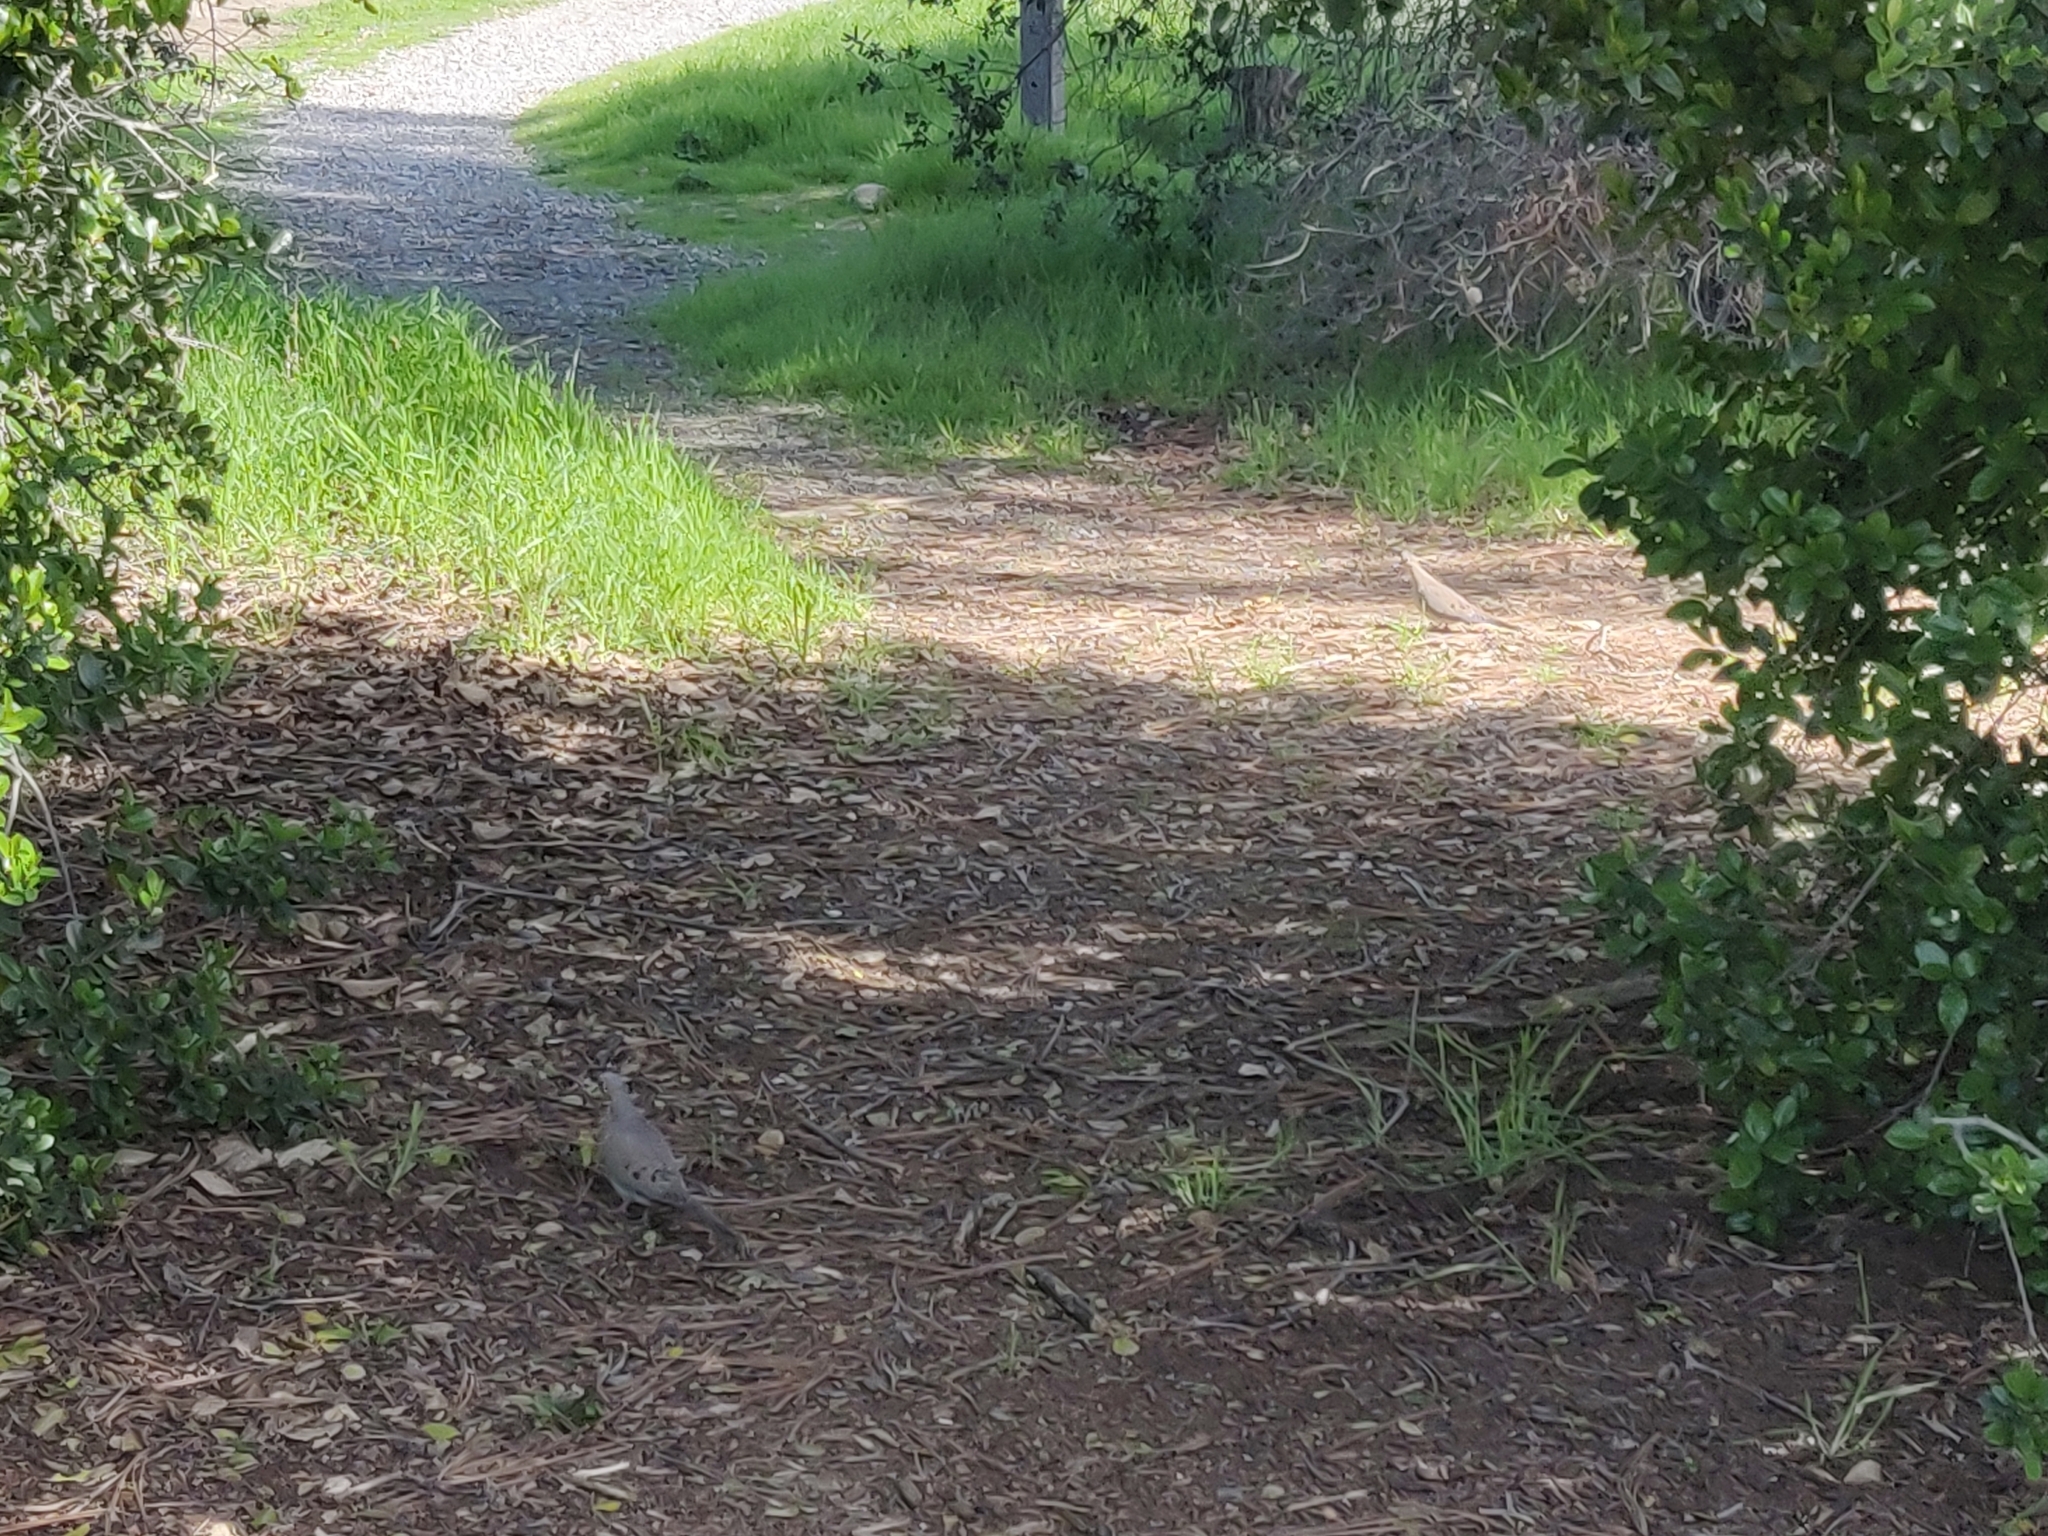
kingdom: Animalia
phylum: Chordata
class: Aves
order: Columbiformes
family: Columbidae
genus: Zenaida
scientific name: Zenaida macroura
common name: Mourning dove
